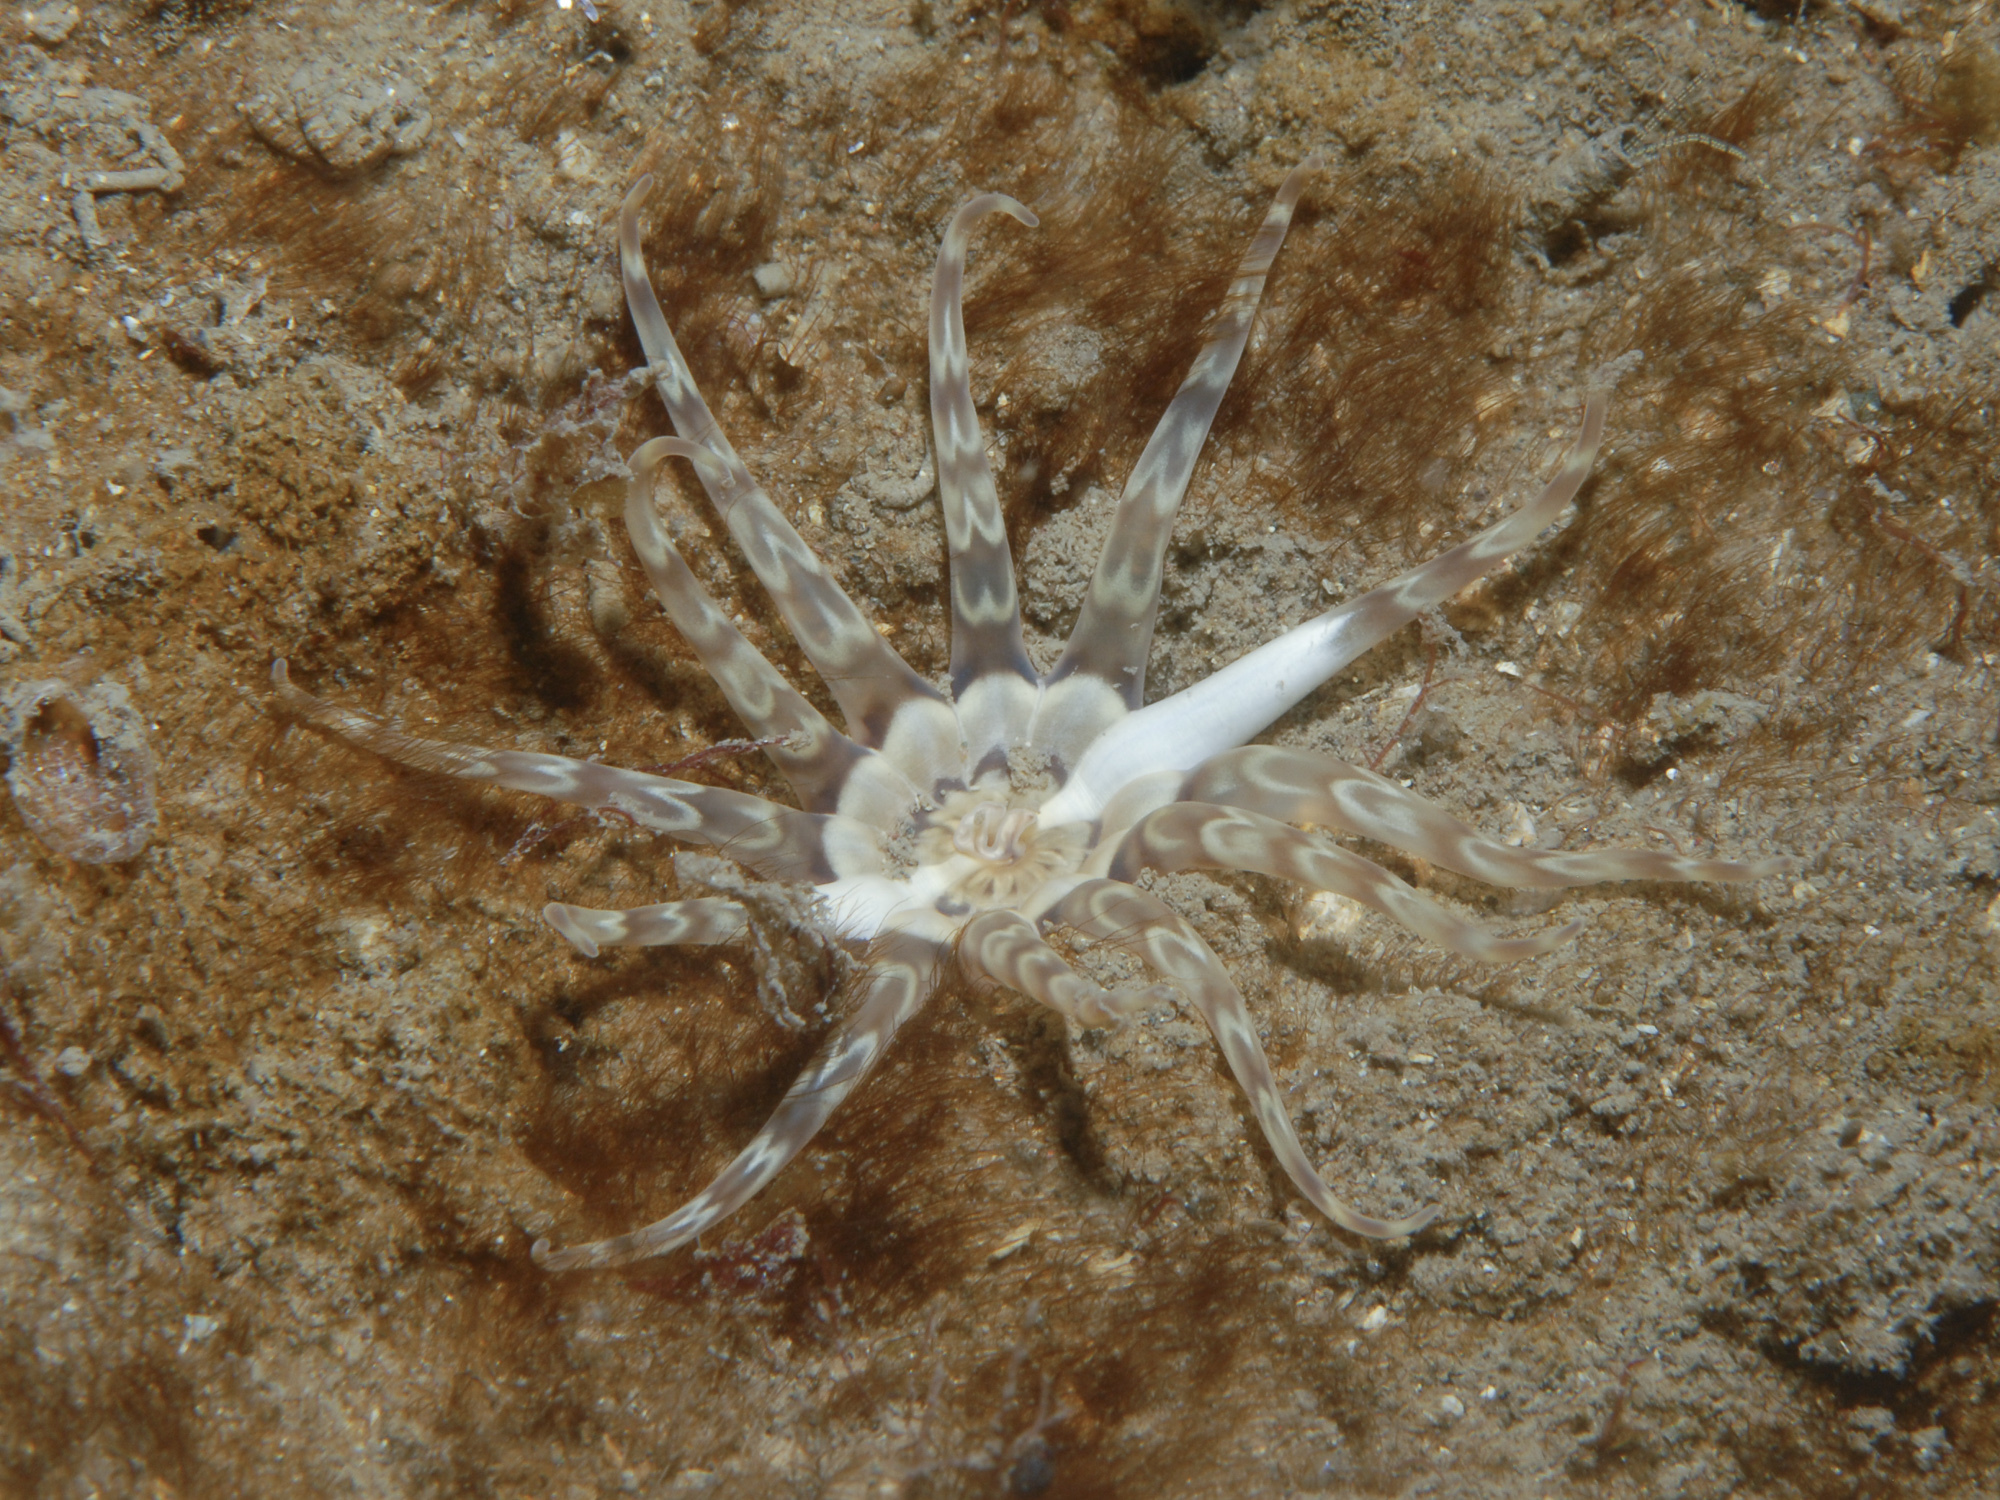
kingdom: Animalia
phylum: Cnidaria
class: Anthozoa
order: Actiniaria
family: Peachiidae
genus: Peachia
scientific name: Peachia cylindrica
